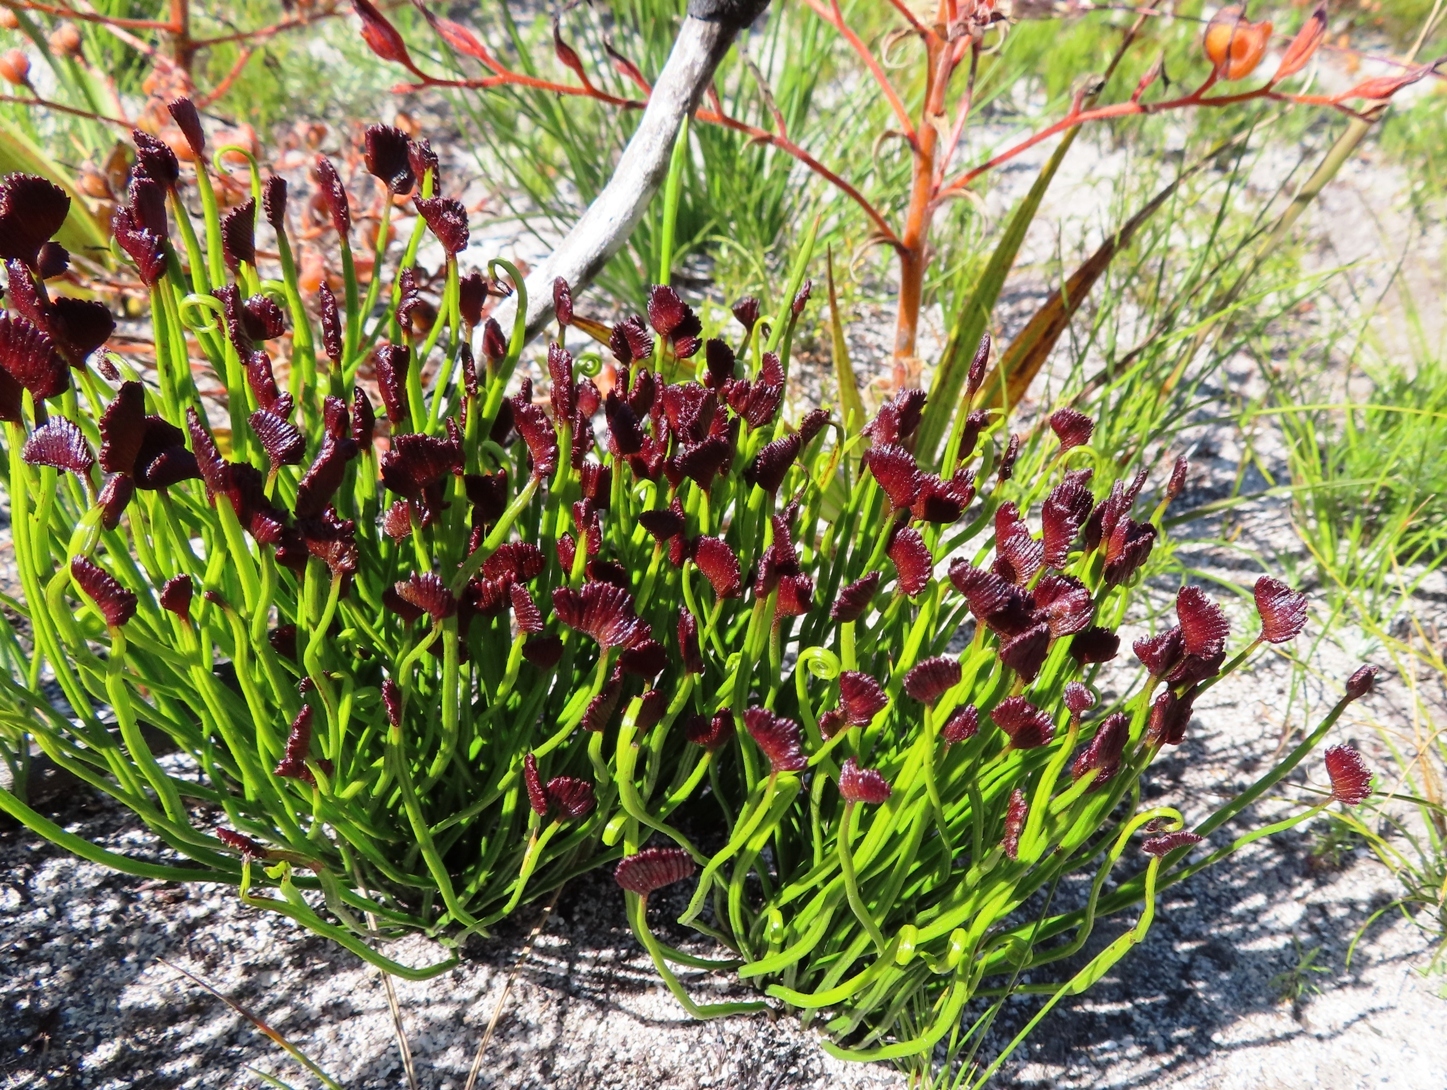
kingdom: Plantae
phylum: Tracheophyta
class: Polypodiopsida
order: Schizaeales
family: Schizaeaceae
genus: Schizaea
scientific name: Schizaea pectinata
